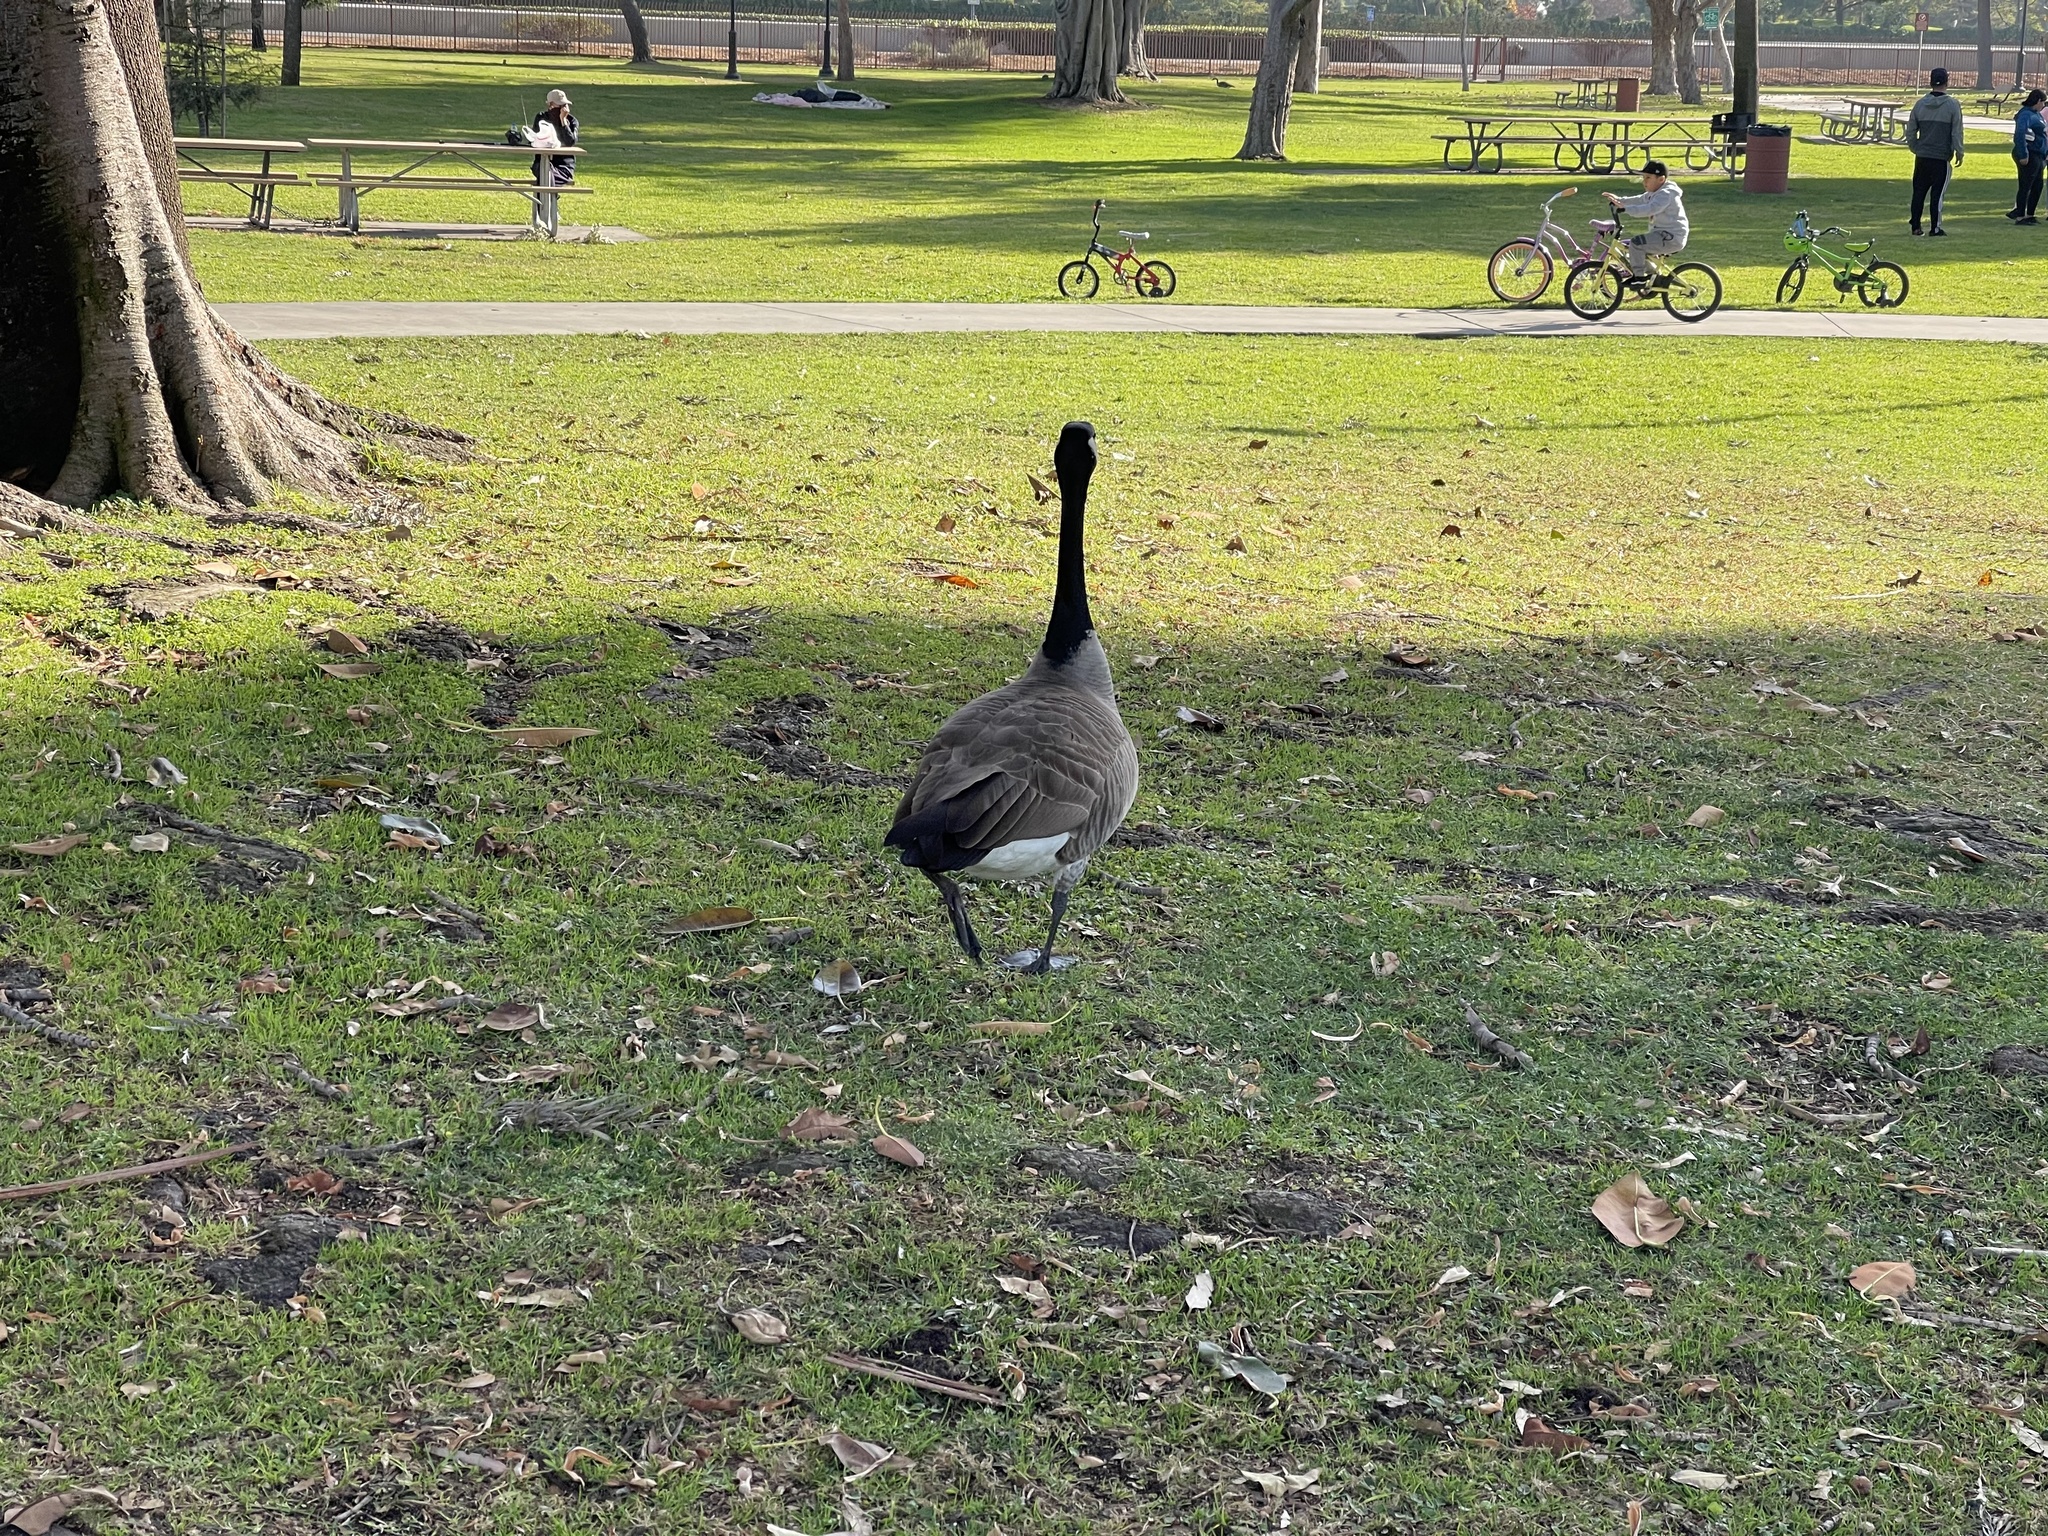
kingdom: Animalia
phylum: Chordata
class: Aves
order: Anseriformes
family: Anatidae
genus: Branta
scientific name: Branta canadensis
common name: Canada goose
